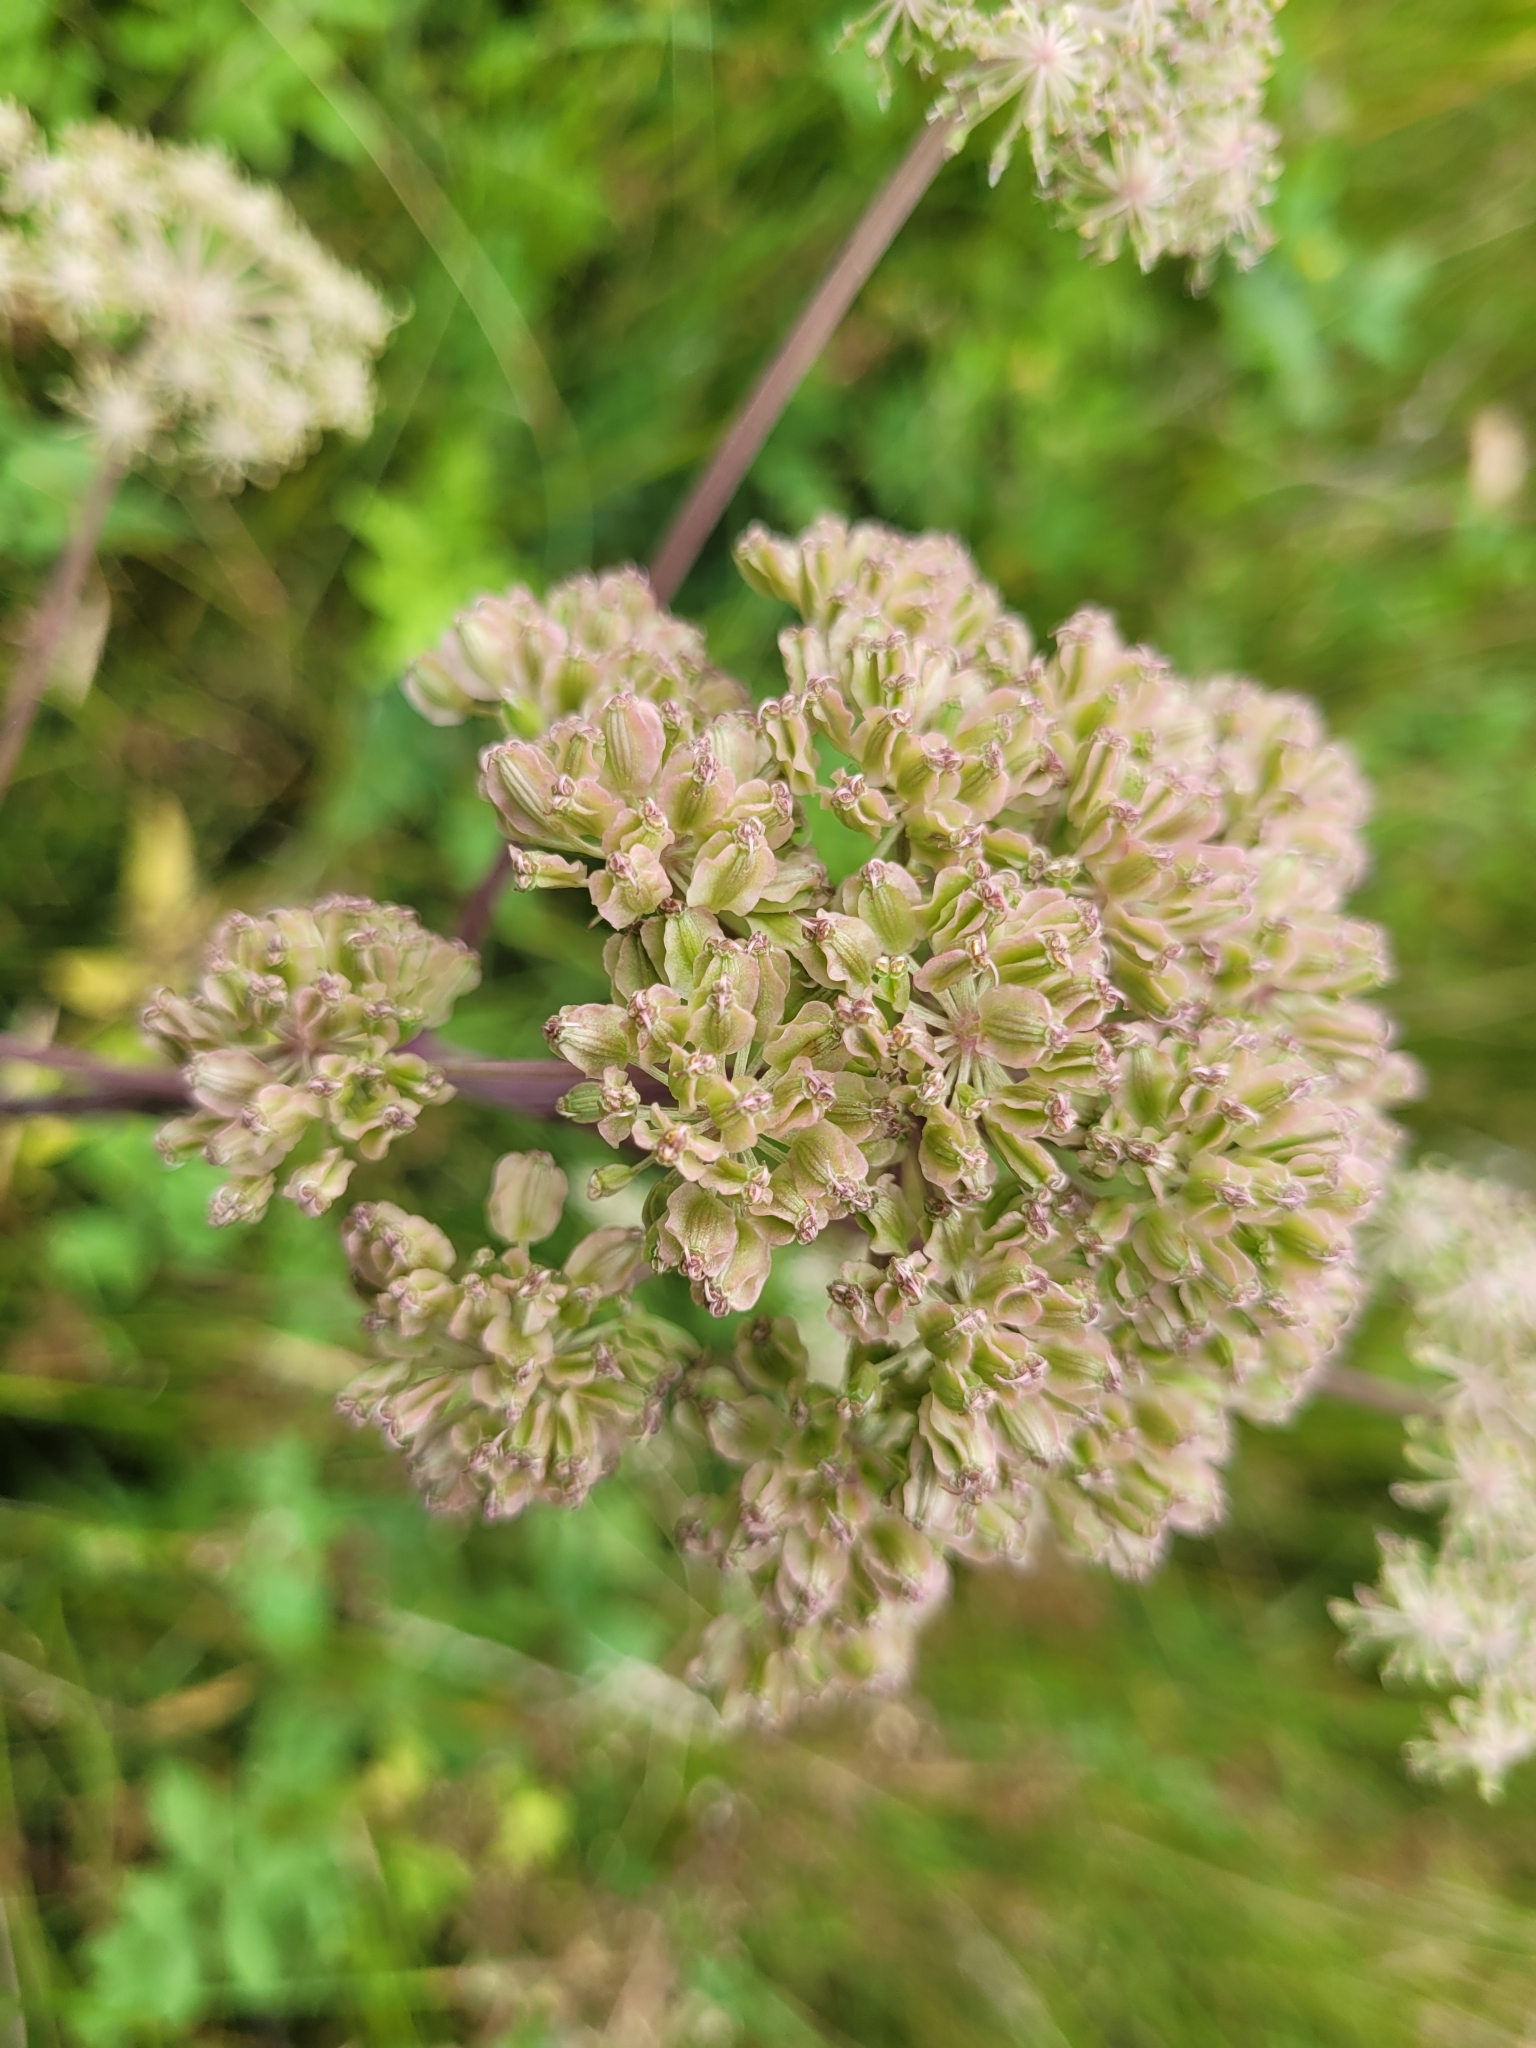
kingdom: Plantae
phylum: Tracheophyta
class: Magnoliopsida
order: Apiales
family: Apiaceae
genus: Angelica
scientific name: Angelica sylvestris
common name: Wild angelica
